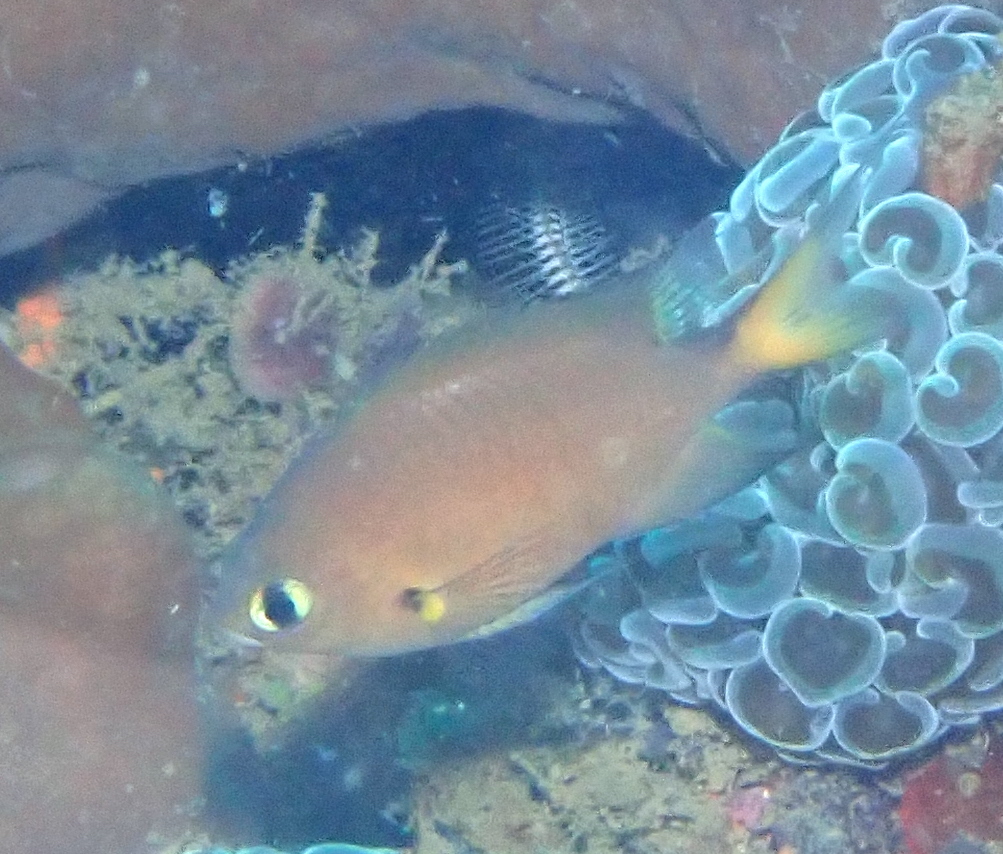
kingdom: Animalia
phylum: Chordata
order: Perciformes
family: Pomacentridae
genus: Chromis
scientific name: Chromis atripes
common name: Dark-fin chromis
